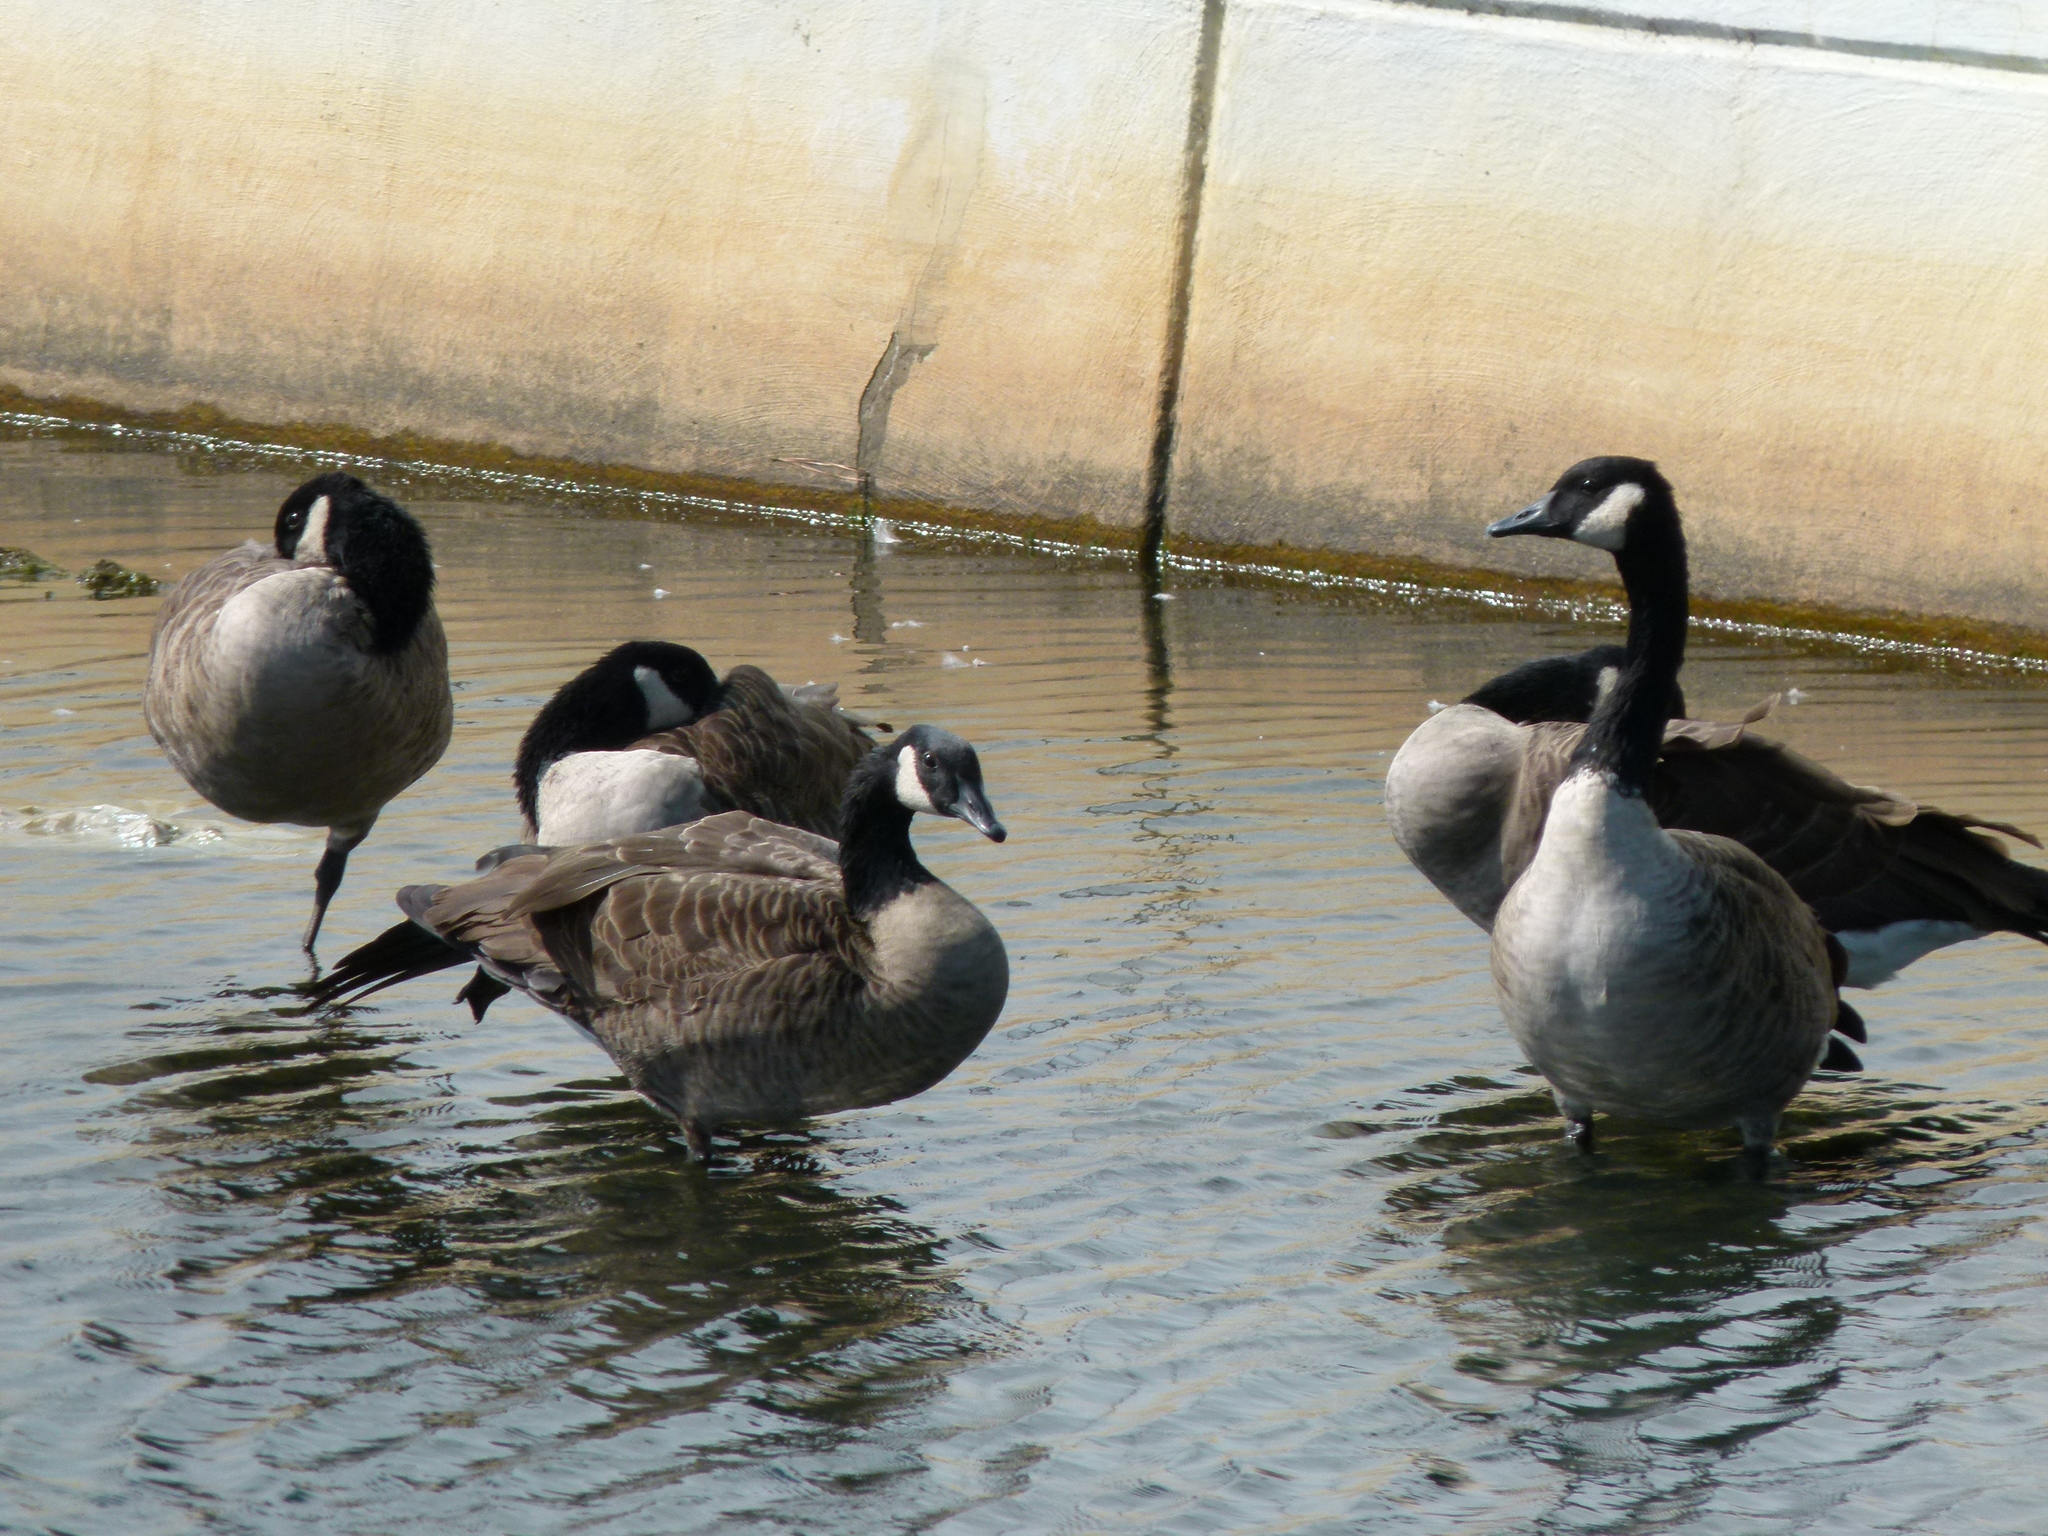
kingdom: Animalia
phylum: Chordata
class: Aves
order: Anseriformes
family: Anatidae
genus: Branta
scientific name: Branta canadensis
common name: Canada goose
